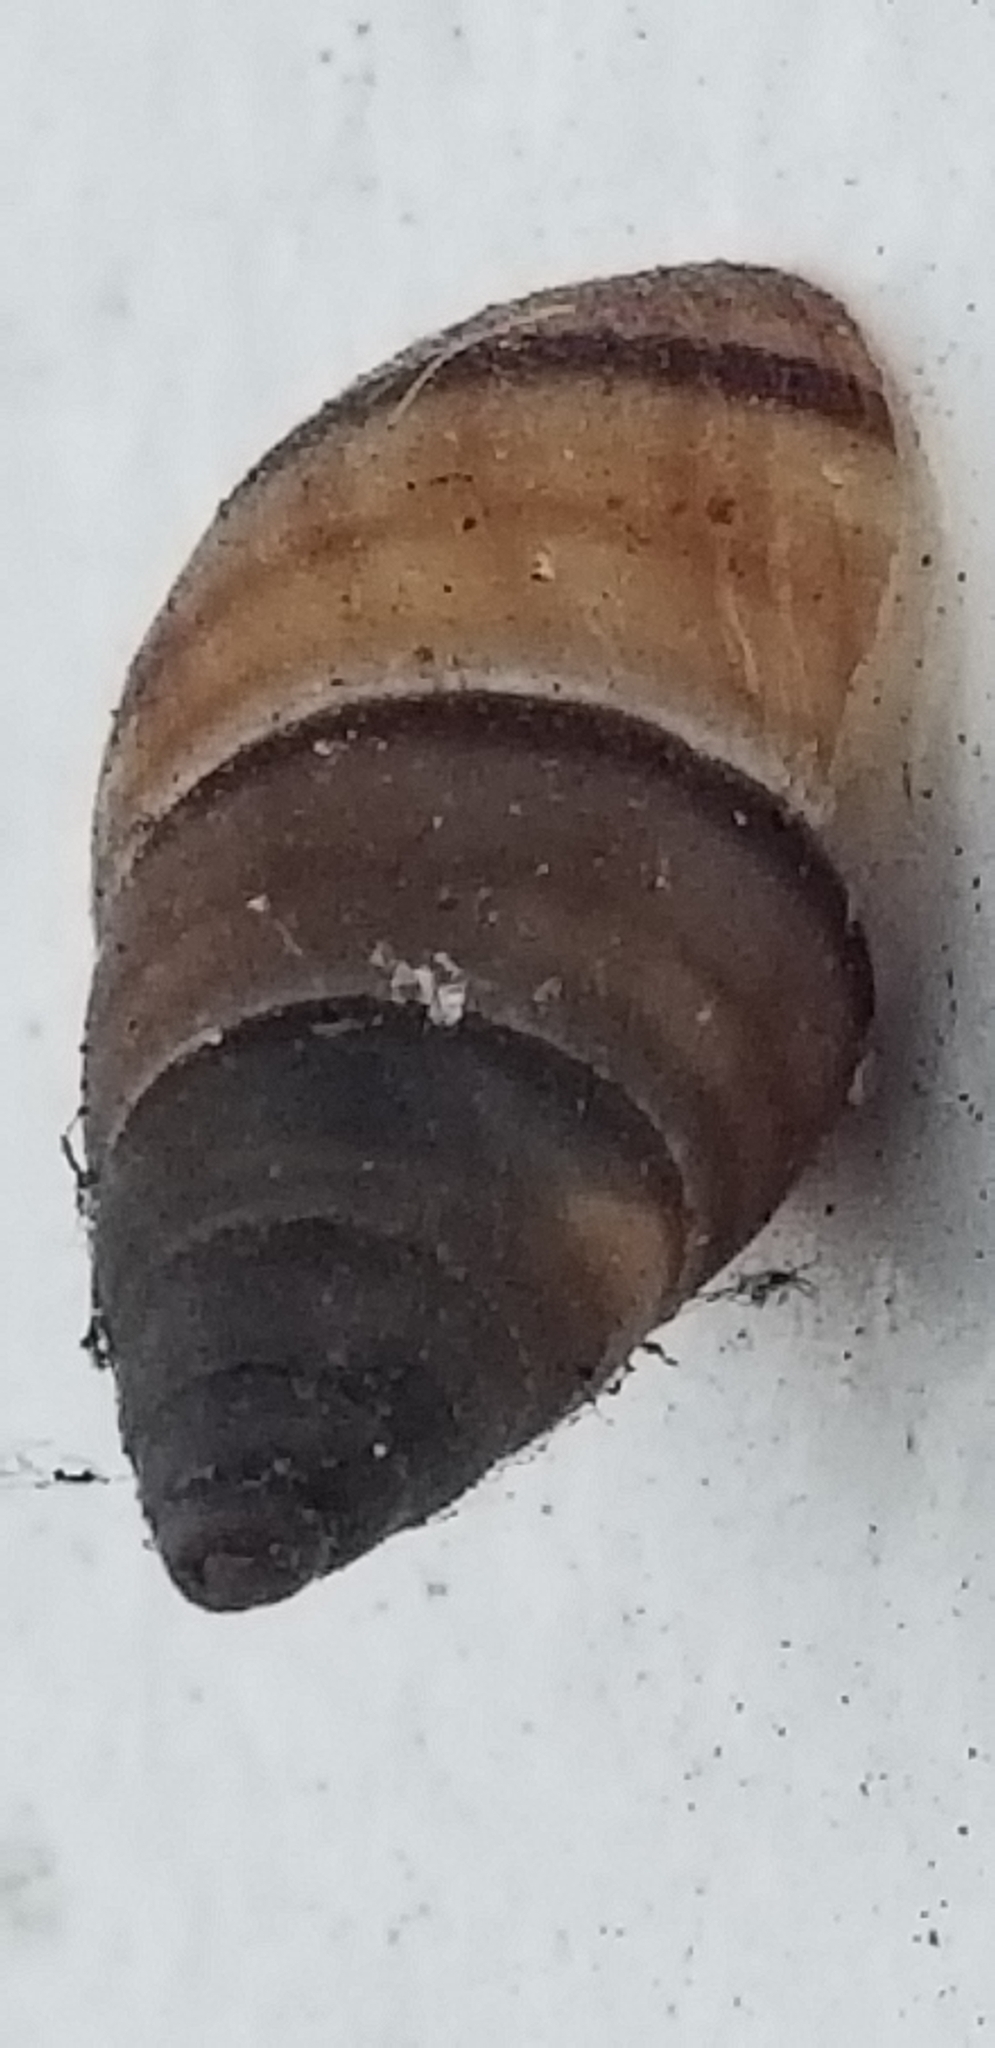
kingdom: Animalia
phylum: Mollusca
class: Gastropoda
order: Stylommatophora
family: Bulimulidae
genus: Bulimulus
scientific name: Bulimulus guadalupensis
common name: West indian bulimulus
